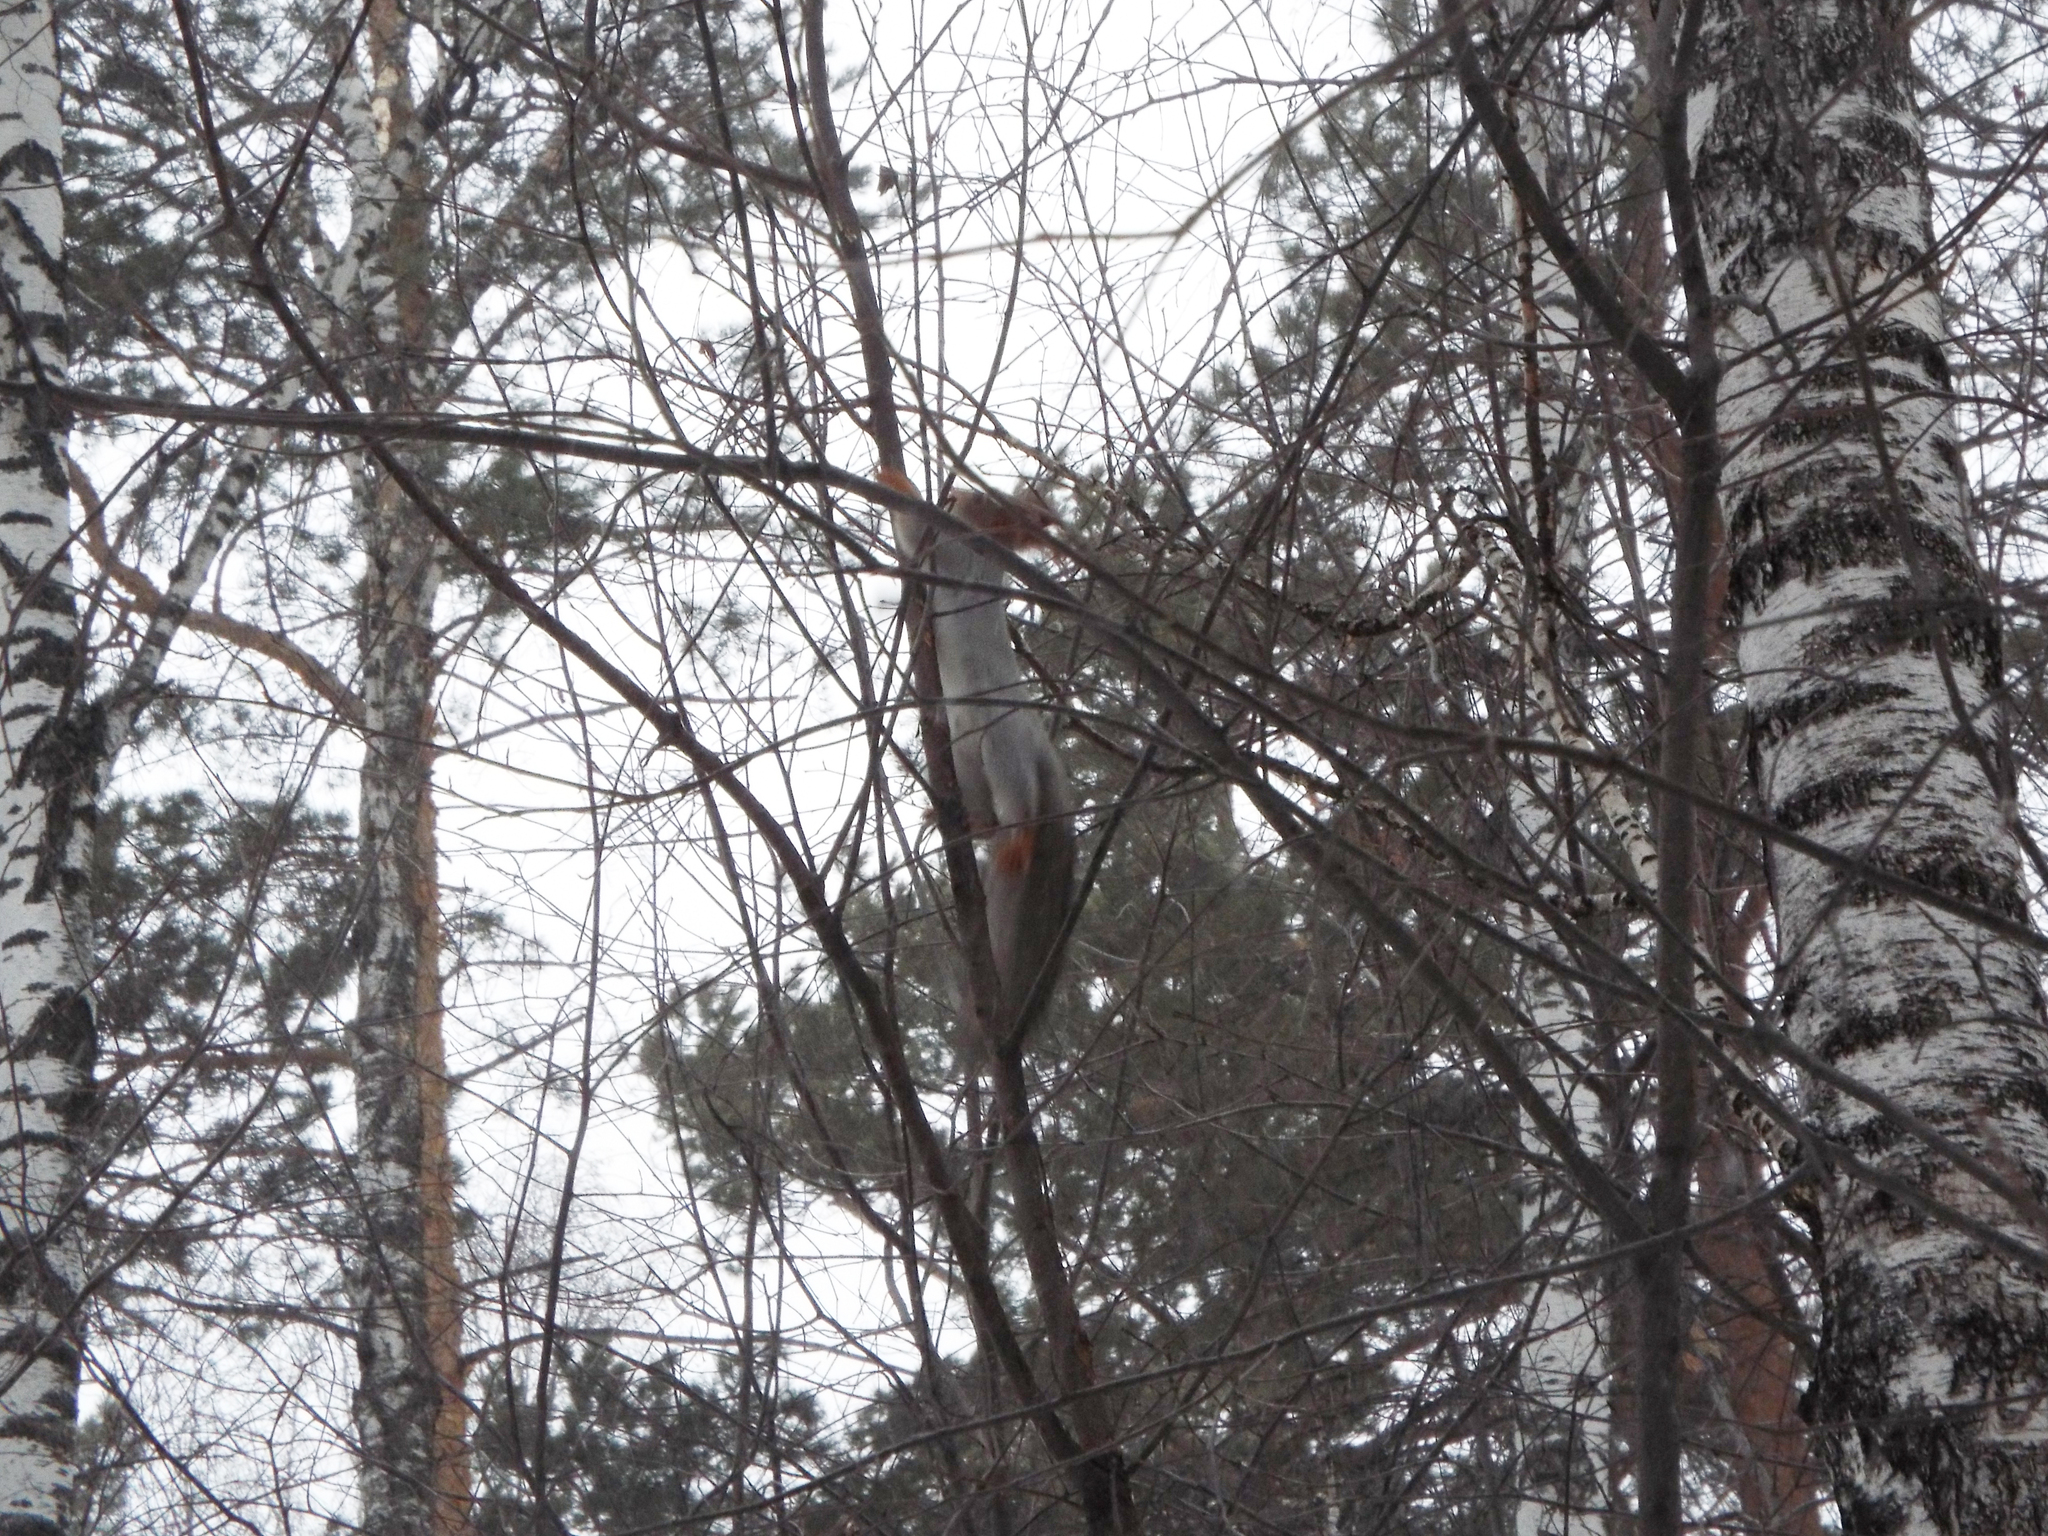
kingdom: Animalia
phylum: Chordata
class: Mammalia
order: Rodentia
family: Sciuridae
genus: Sciurus
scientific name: Sciurus vulgaris
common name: Eurasian red squirrel
